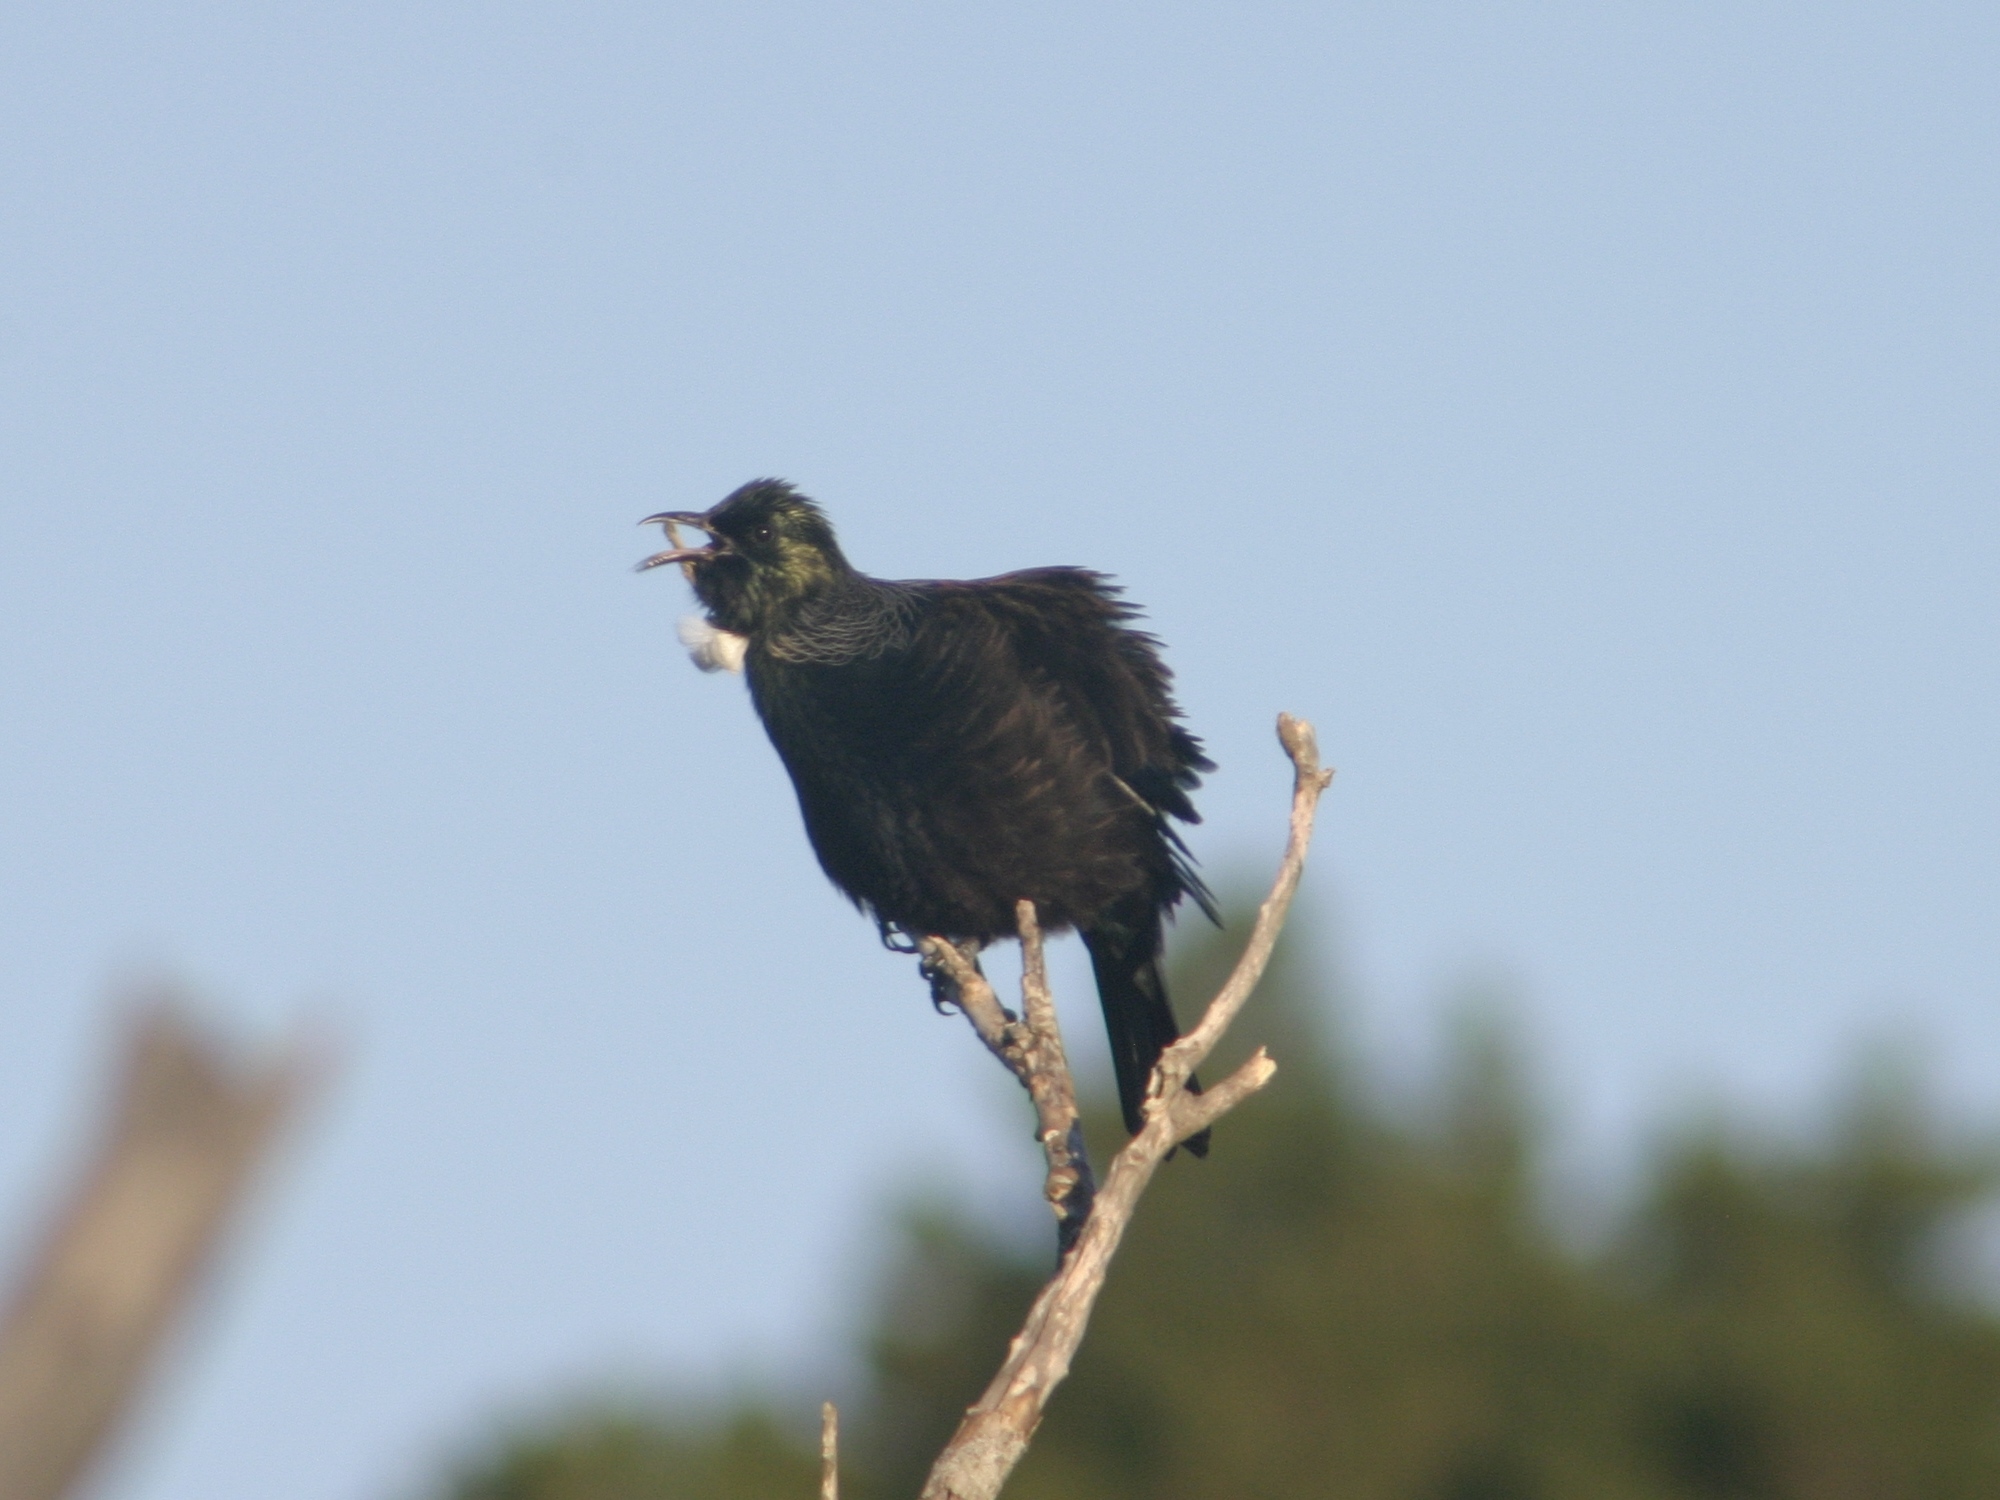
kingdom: Animalia
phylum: Chordata
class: Aves
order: Passeriformes
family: Meliphagidae
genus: Prosthemadera
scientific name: Prosthemadera novaeseelandiae
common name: Tui
